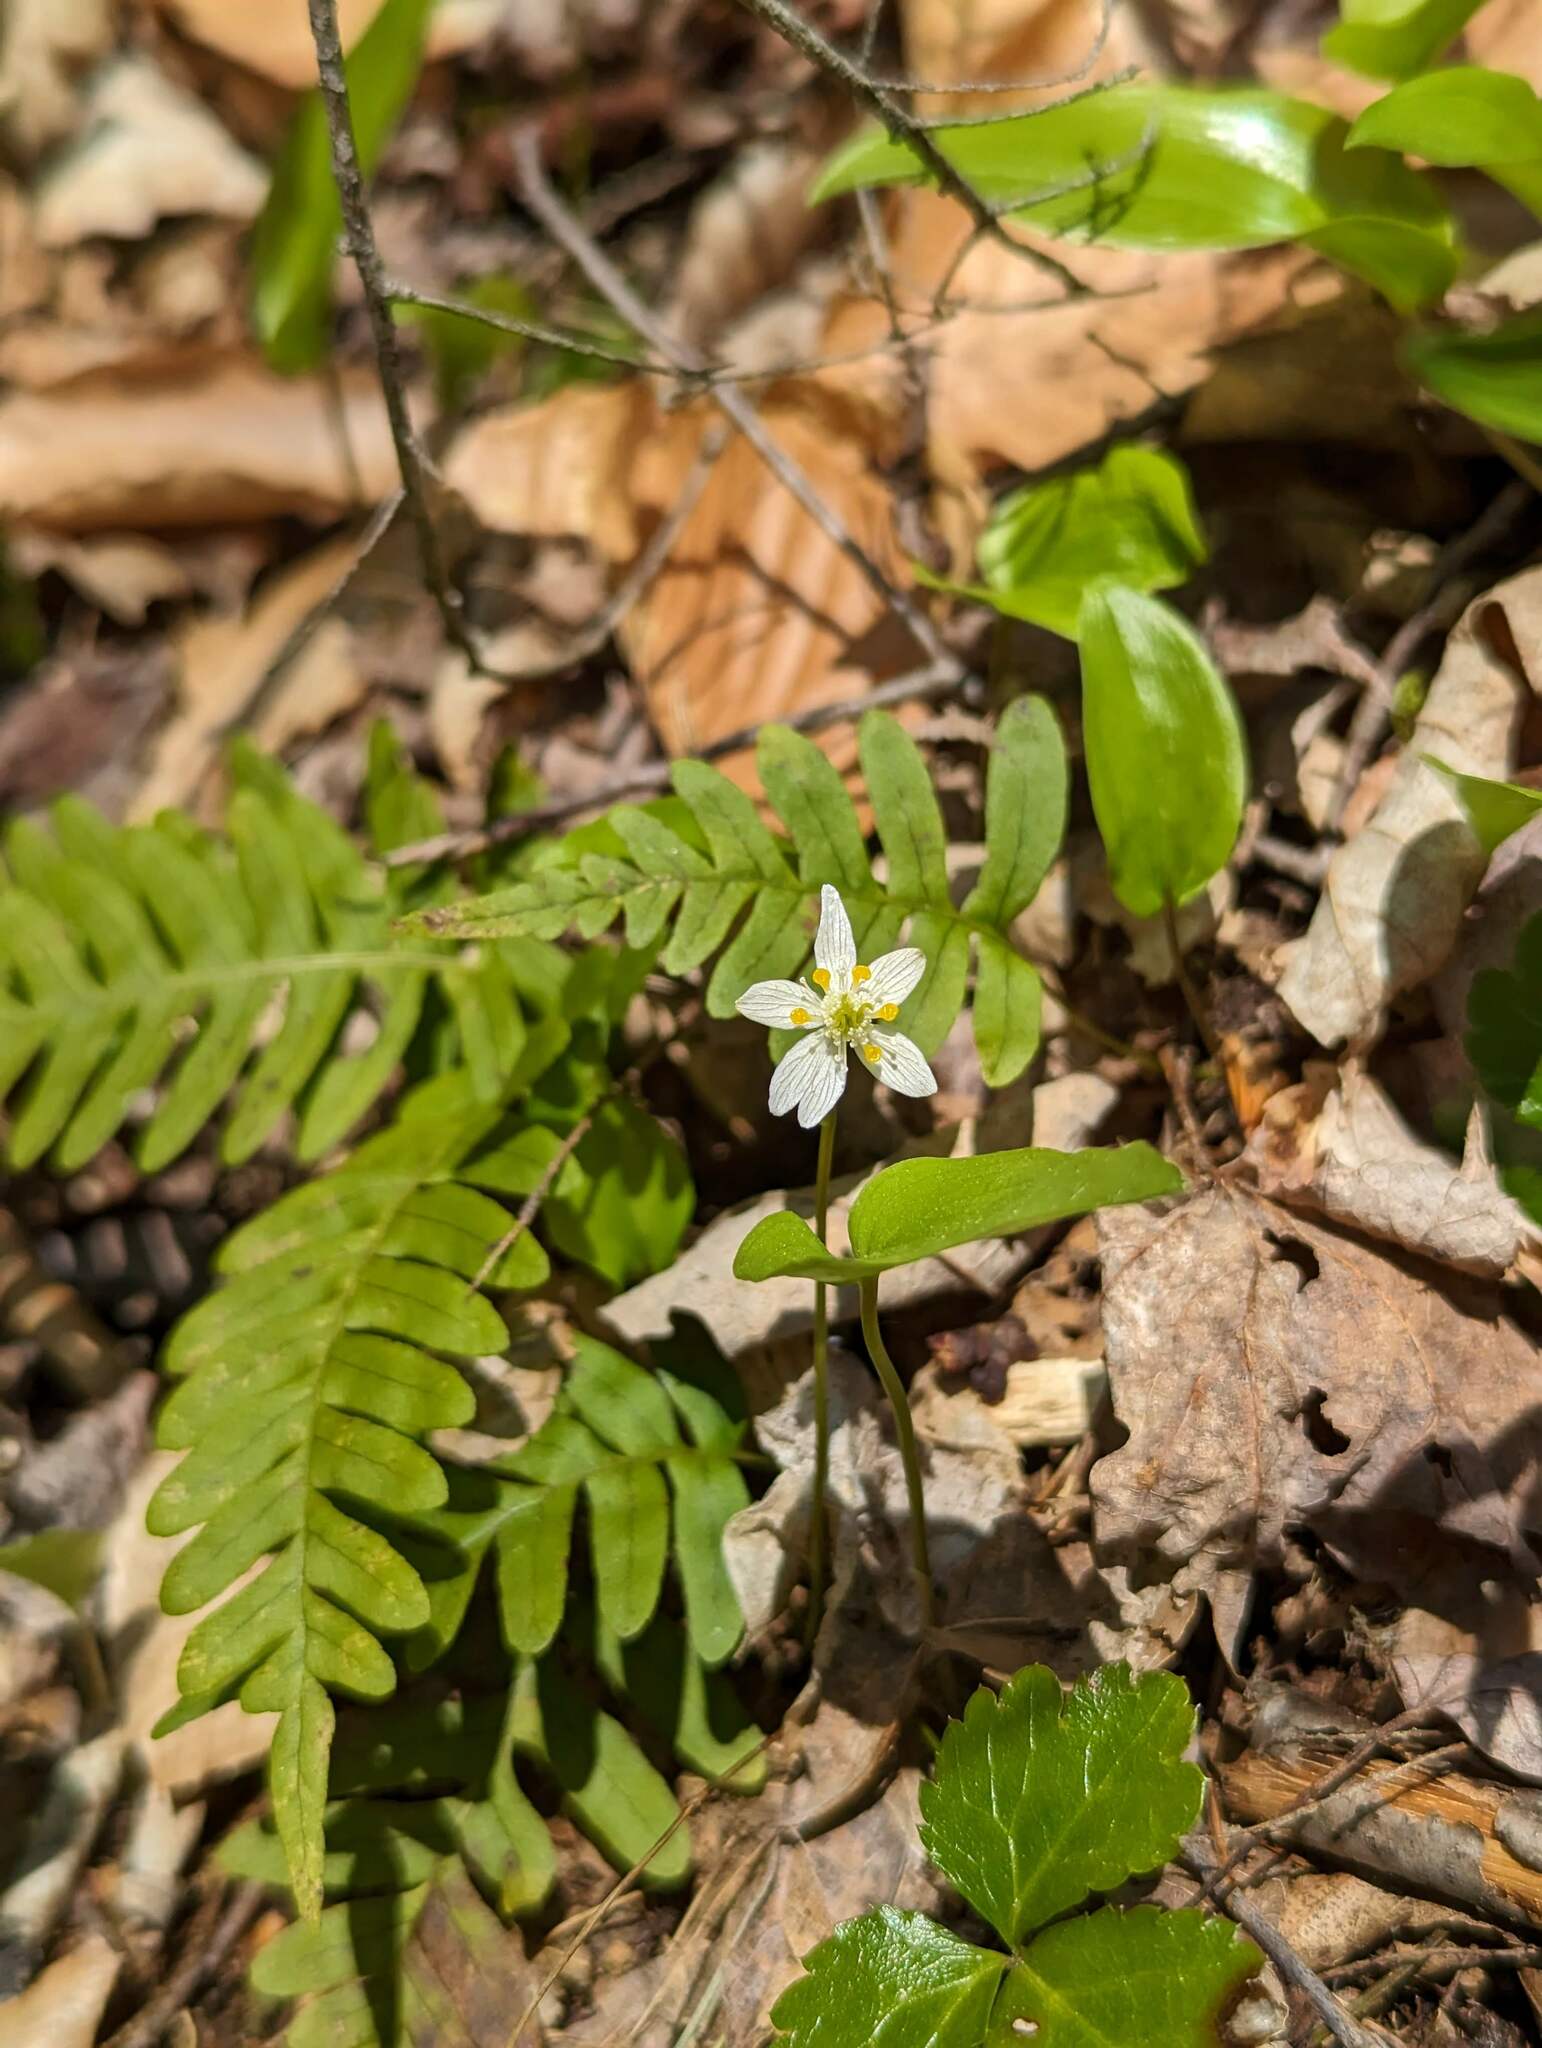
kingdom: Plantae
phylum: Tracheophyta
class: Magnoliopsida
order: Ranunculales
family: Ranunculaceae
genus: Coptis
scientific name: Coptis trifolia
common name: Canker-root
